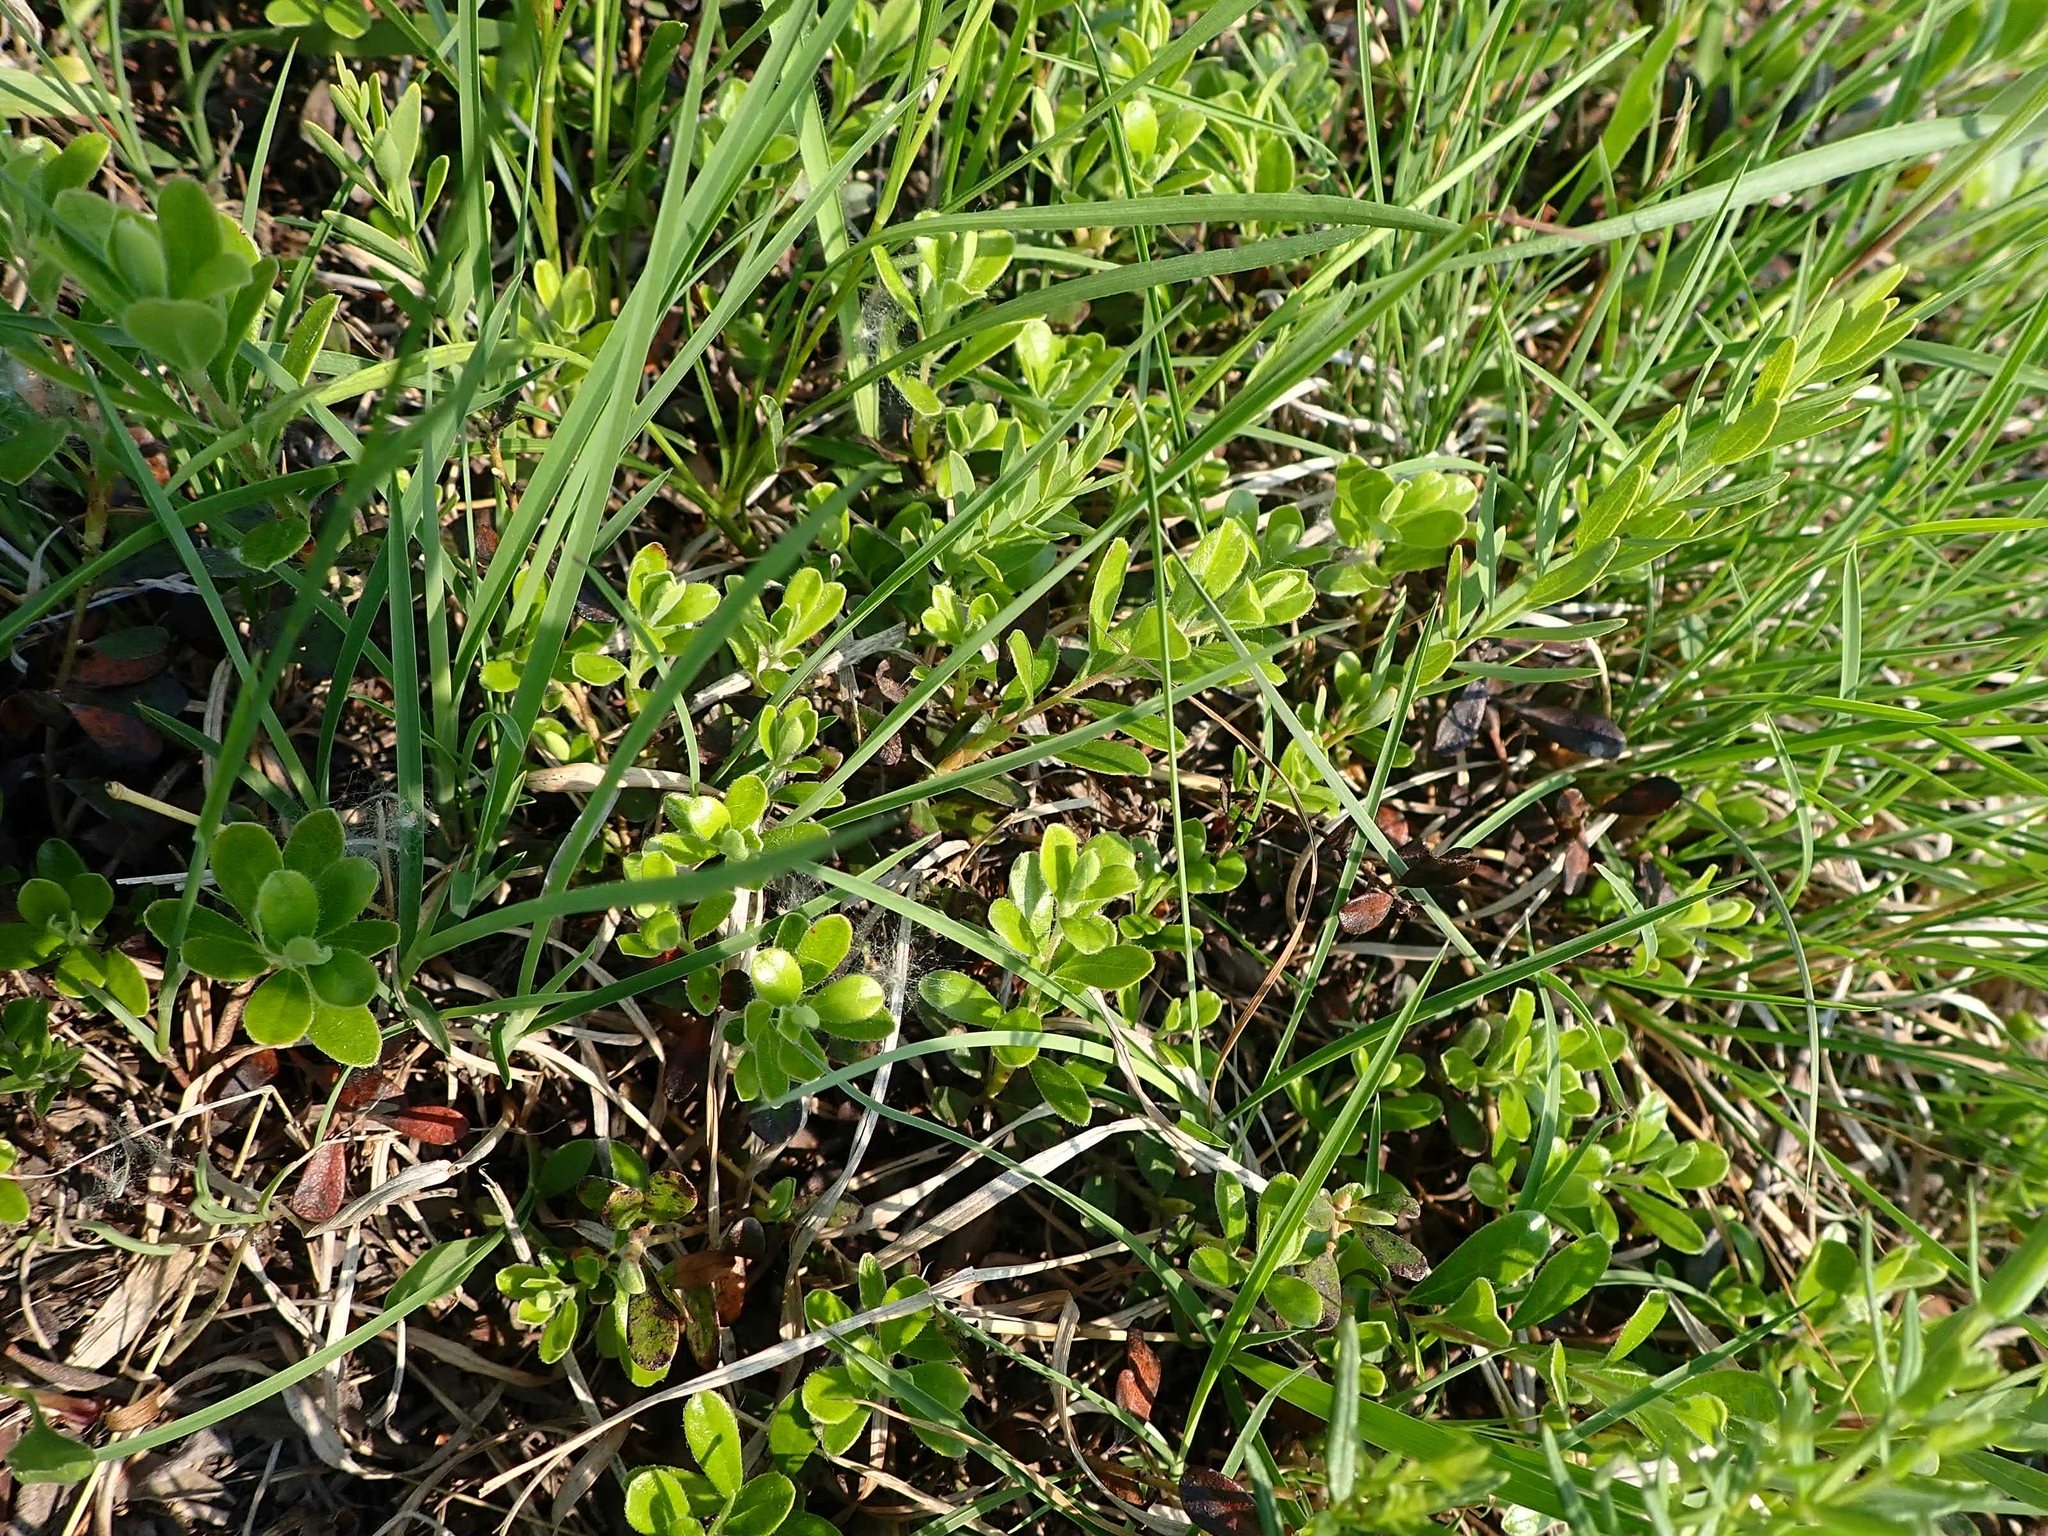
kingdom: Plantae
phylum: Tracheophyta
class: Magnoliopsida
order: Ericales
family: Ericaceae
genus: Arctostaphylos
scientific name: Arctostaphylos uva-ursi
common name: Bearberry
